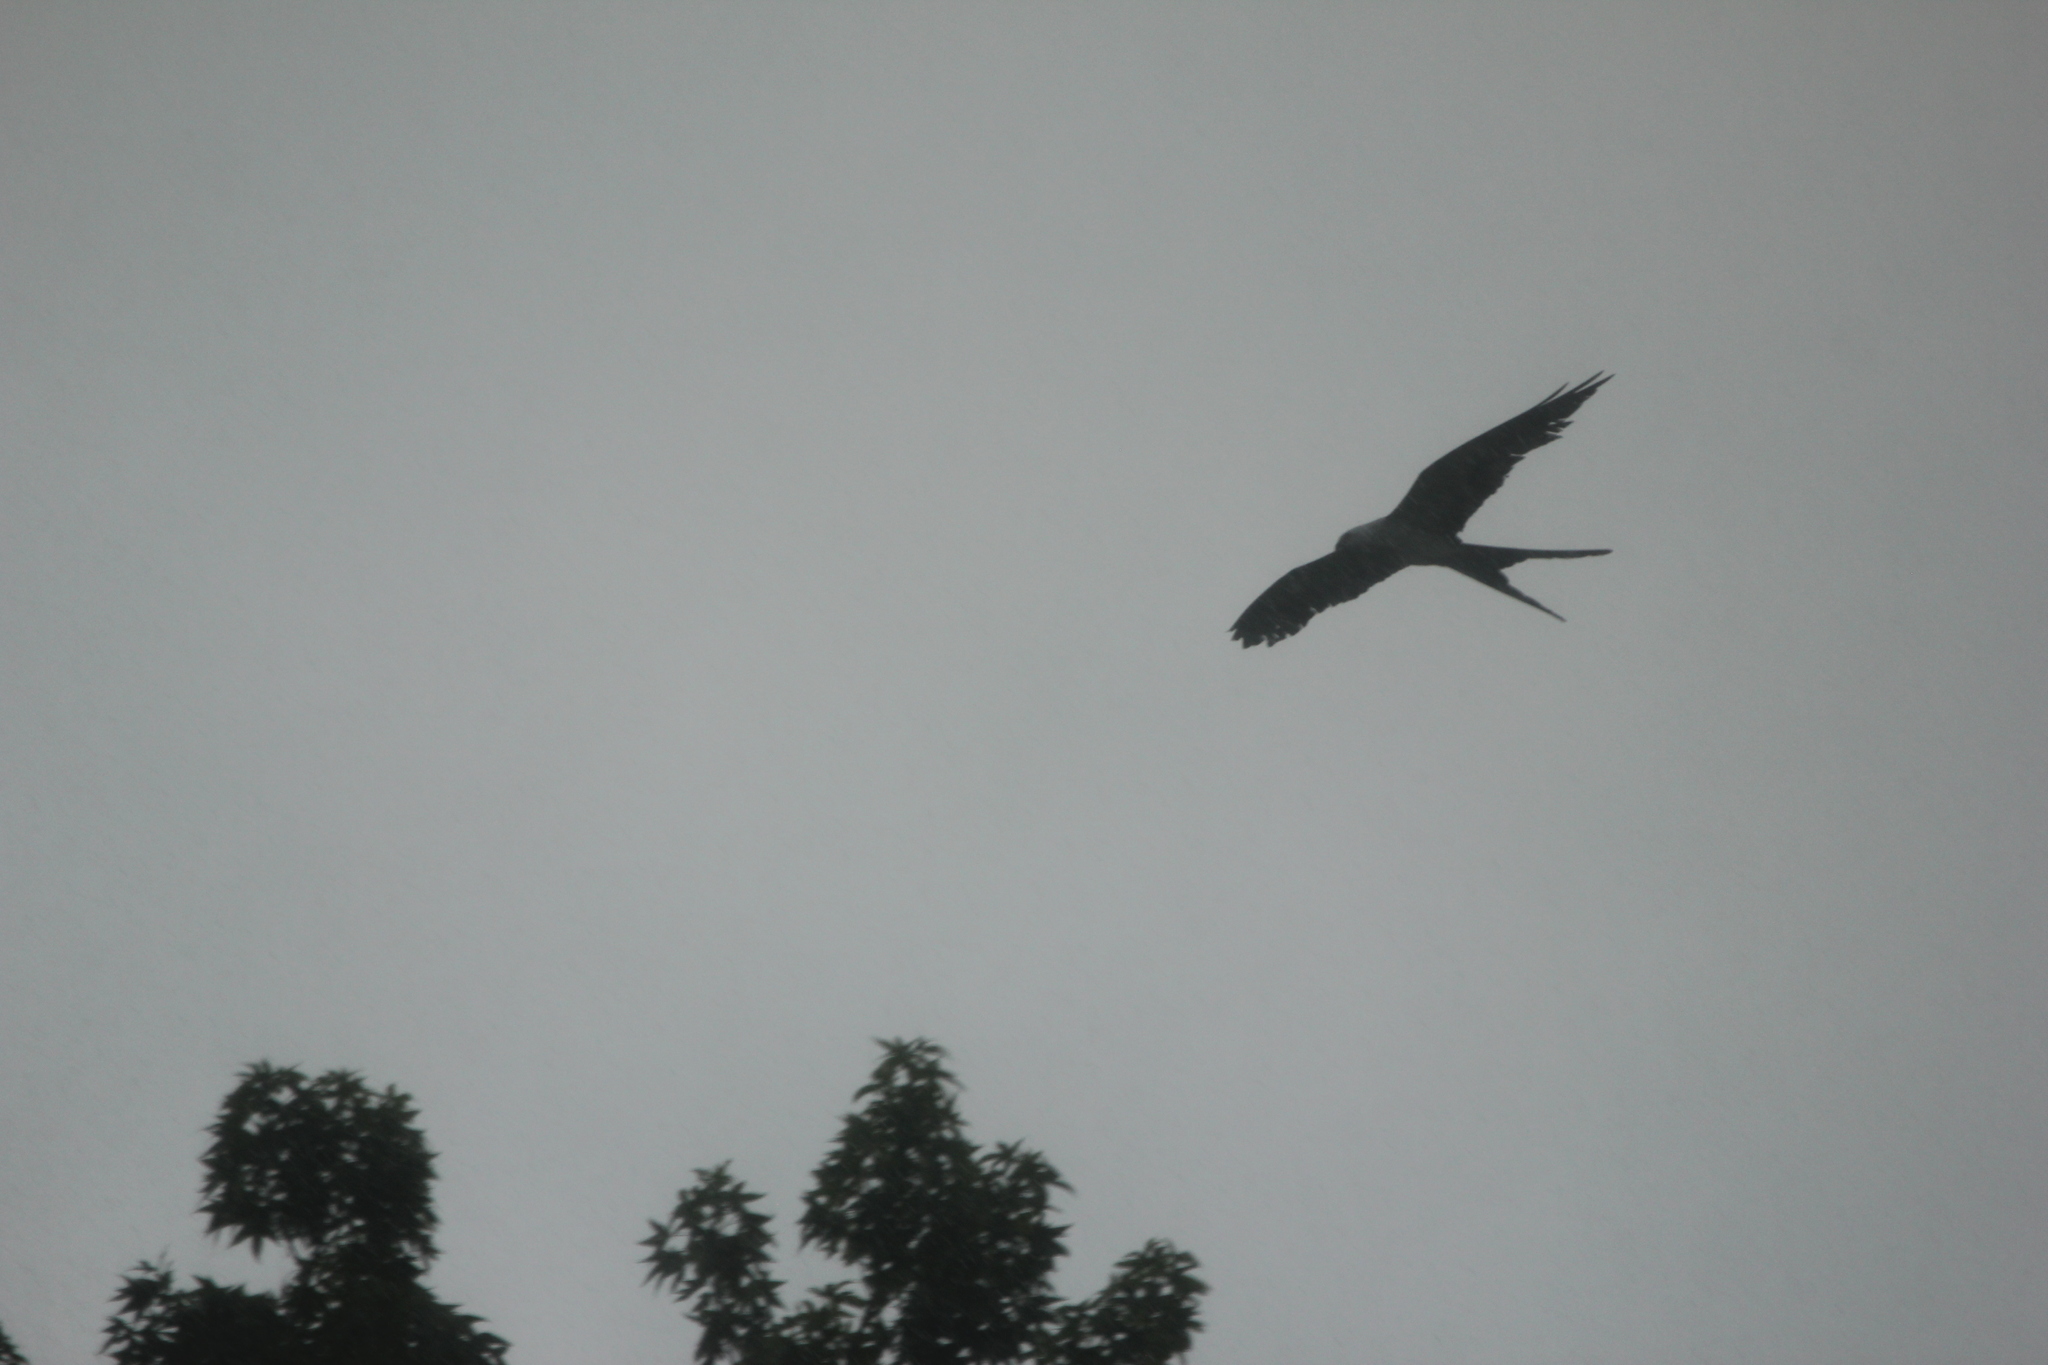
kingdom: Animalia
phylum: Chordata
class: Aves
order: Accipitriformes
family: Accipitridae
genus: Elanoides
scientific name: Elanoides forficatus
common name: Swallow-tailed kite
